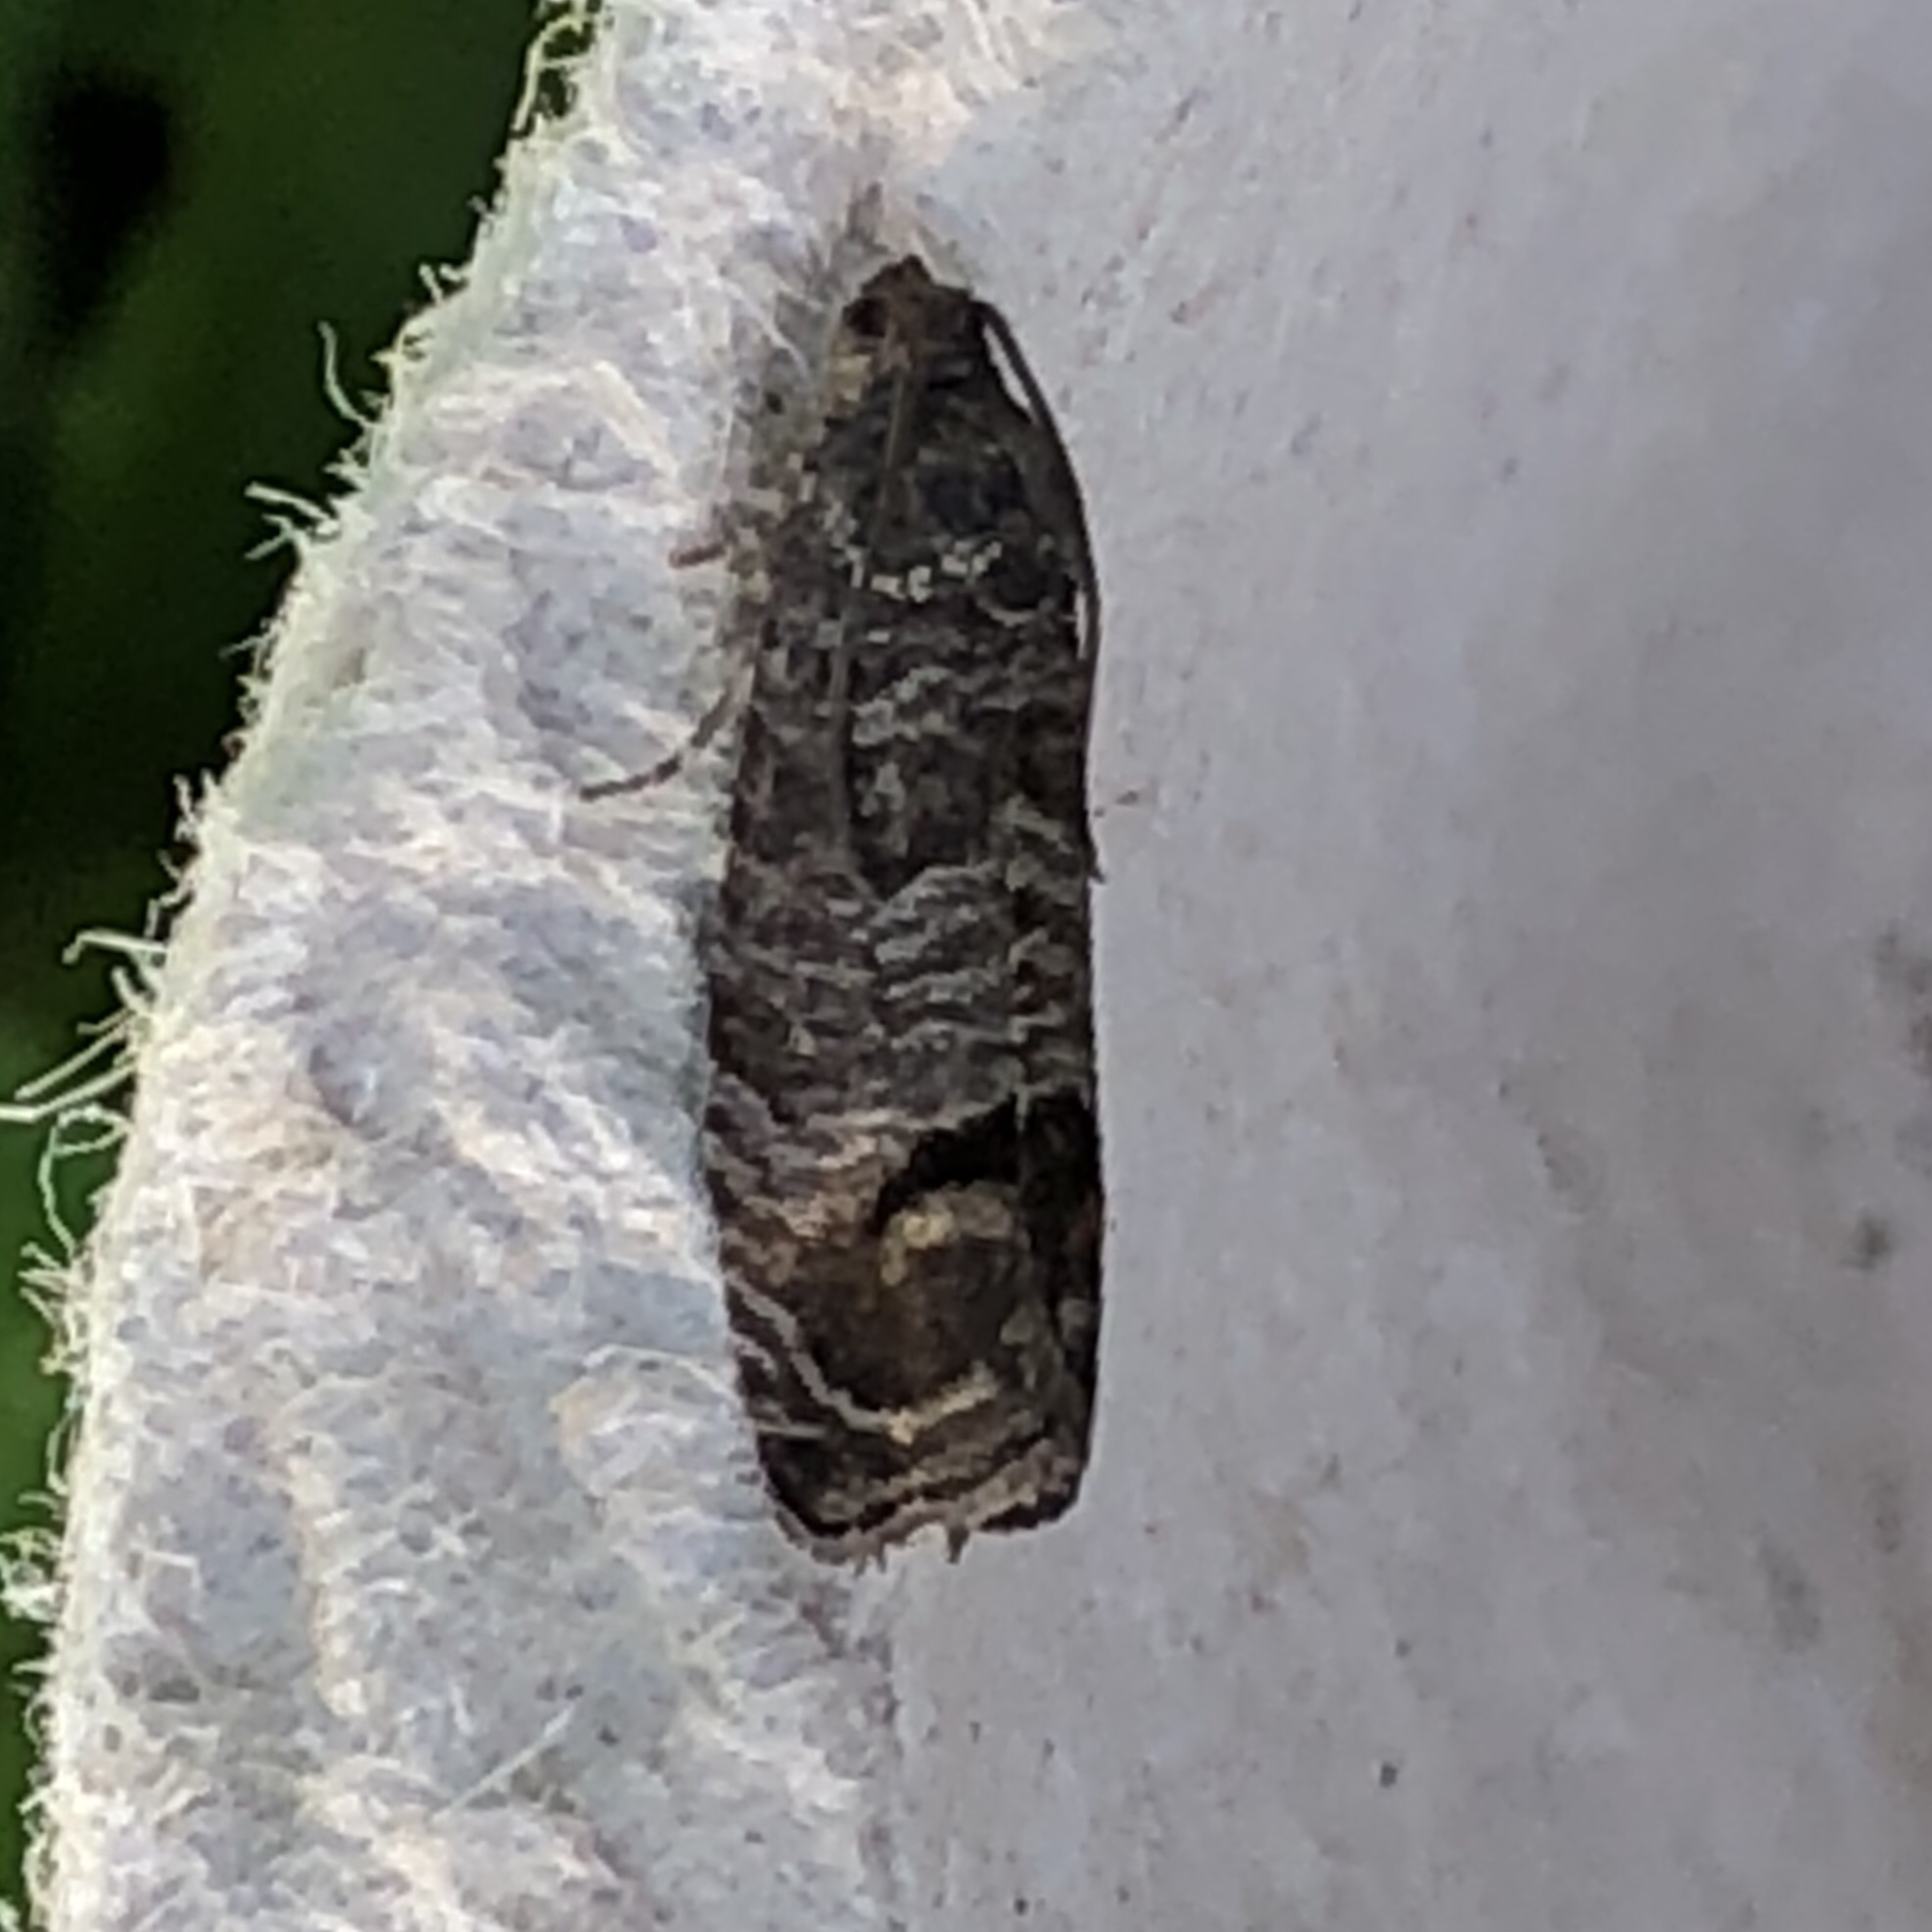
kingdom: Animalia
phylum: Arthropoda
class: Insecta
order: Lepidoptera
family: Tortricidae
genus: Cydia
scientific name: Cydia pomonella
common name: Codling moth
